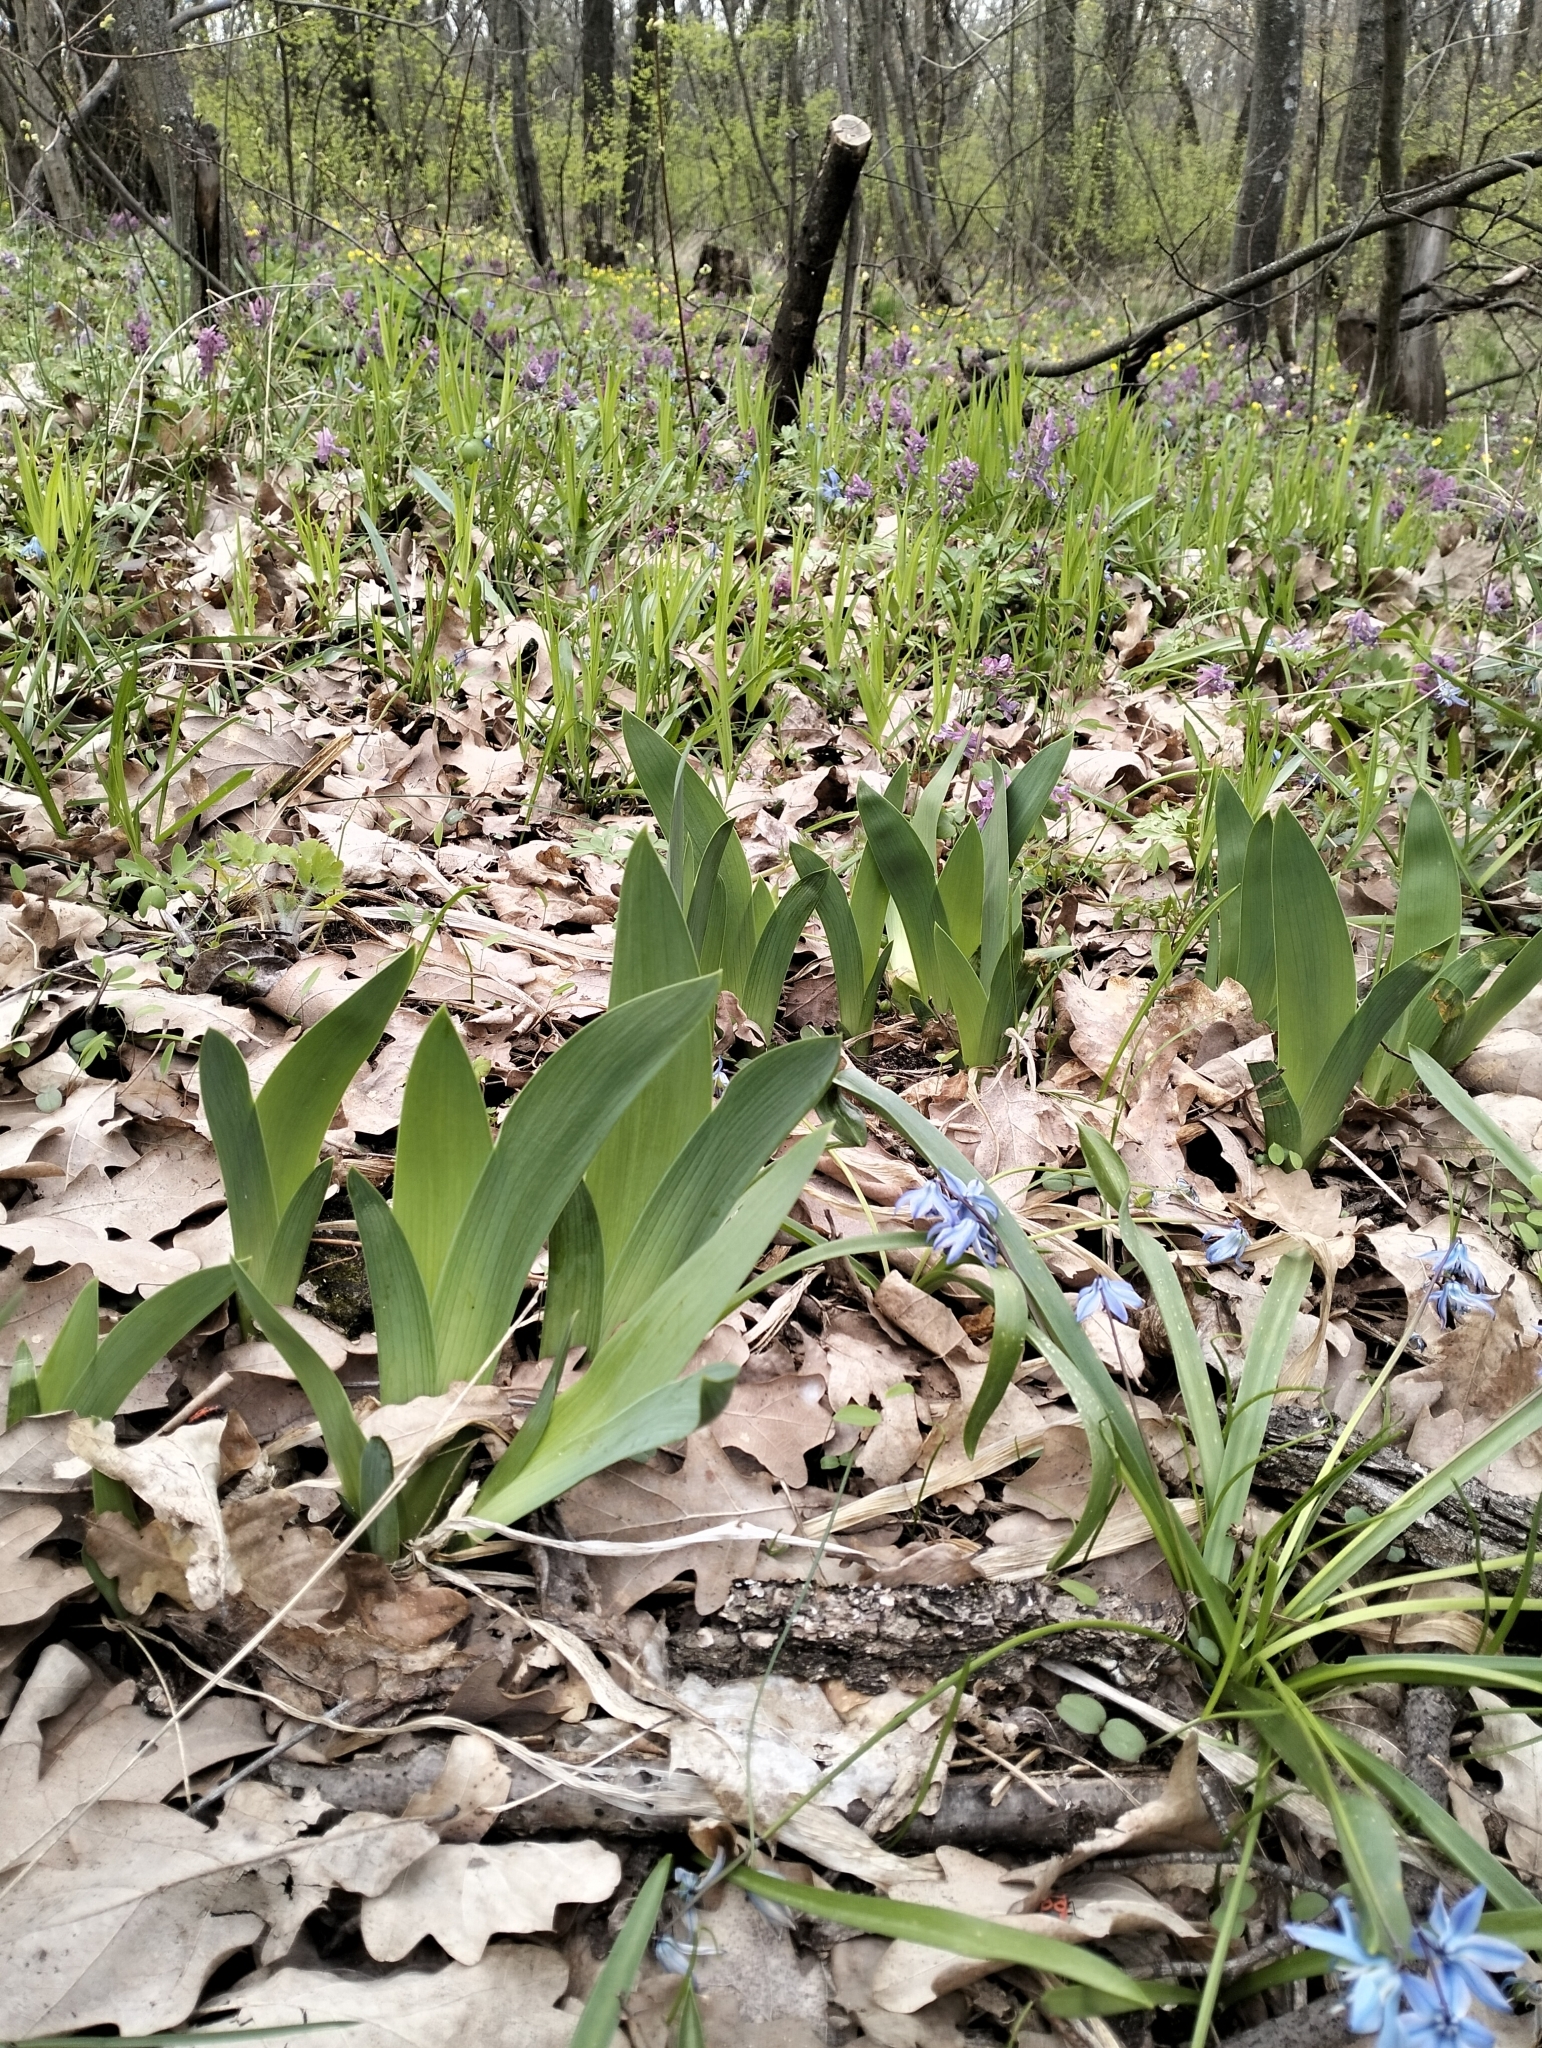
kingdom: Plantae
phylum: Tracheophyta
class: Liliopsida
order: Asparagales
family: Iridaceae
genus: Iris
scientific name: Iris aphylla
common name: Stool iris
